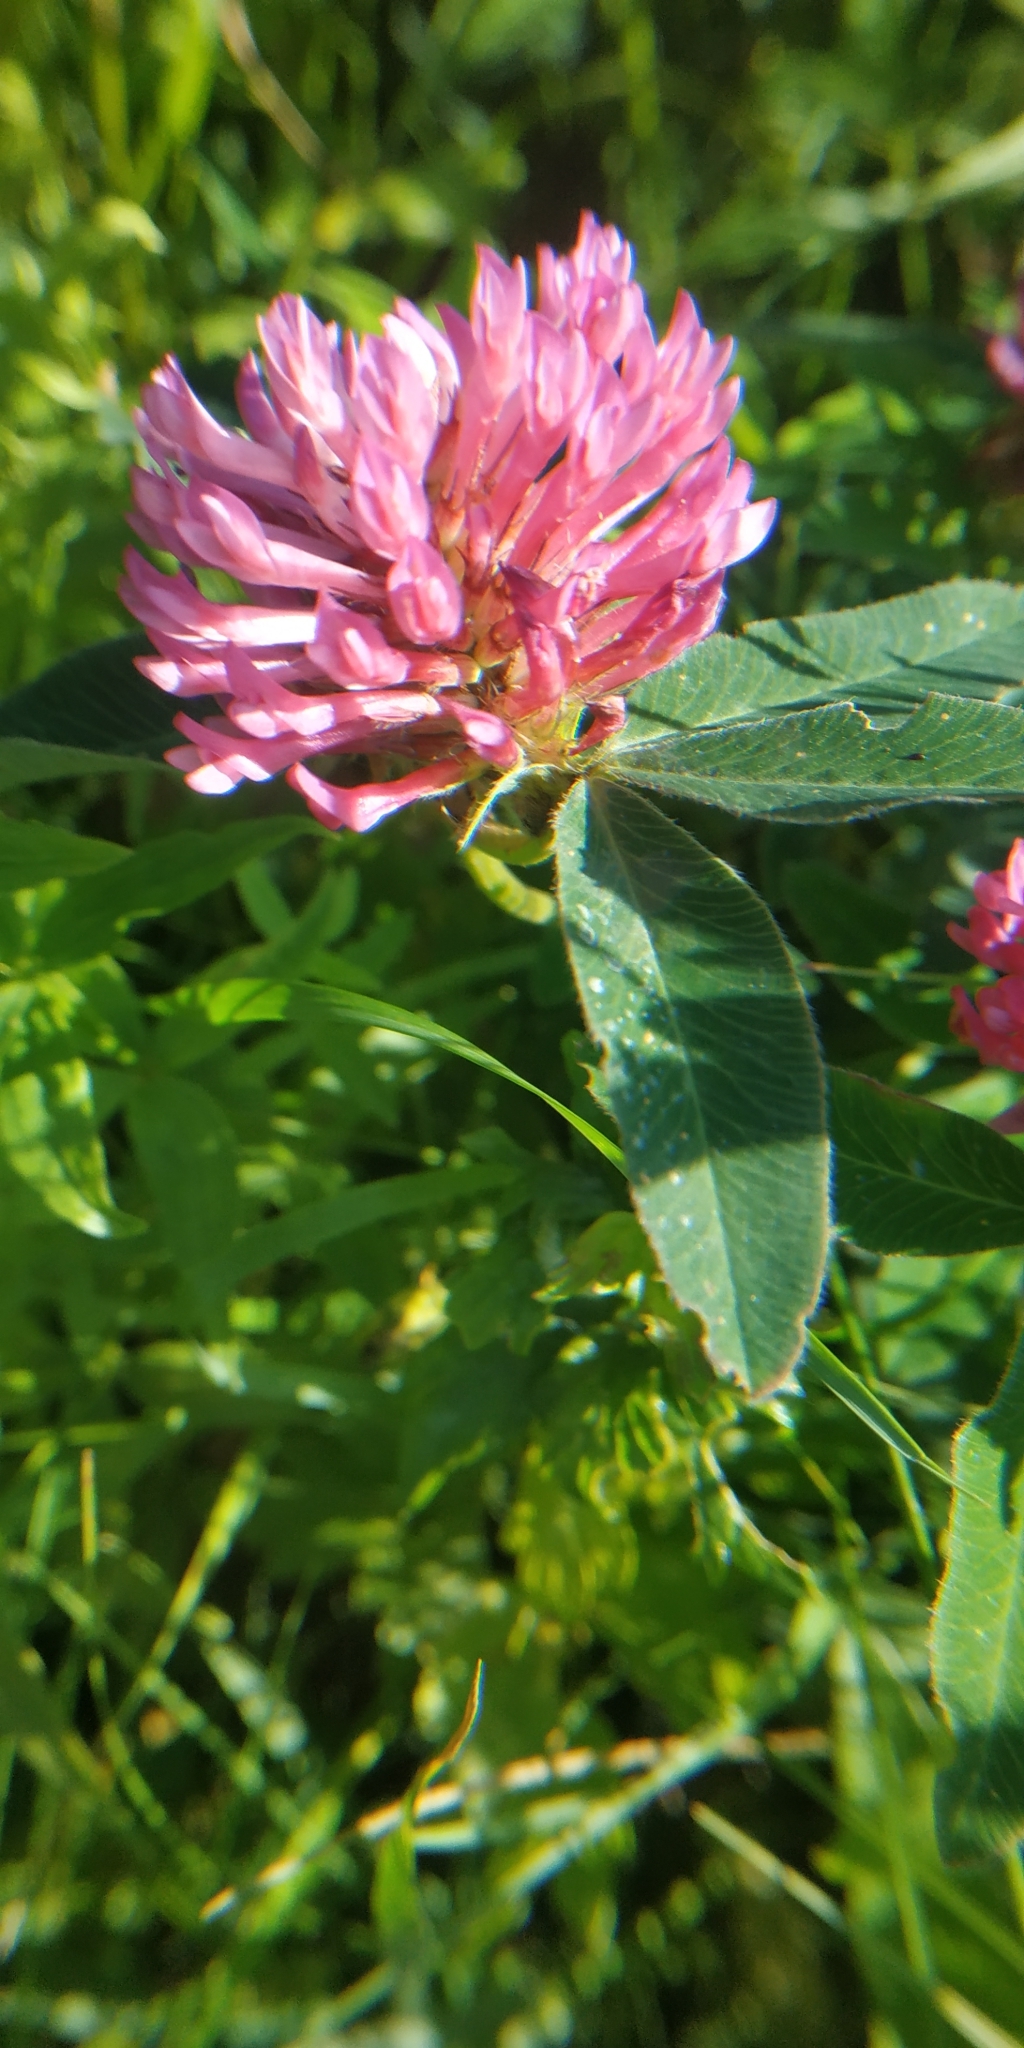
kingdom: Plantae
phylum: Tracheophyta
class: Magnoliopsida
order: Fabales
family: Fabaceae
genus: Trifolium
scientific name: Trifolium medium
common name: Zigzag clover
